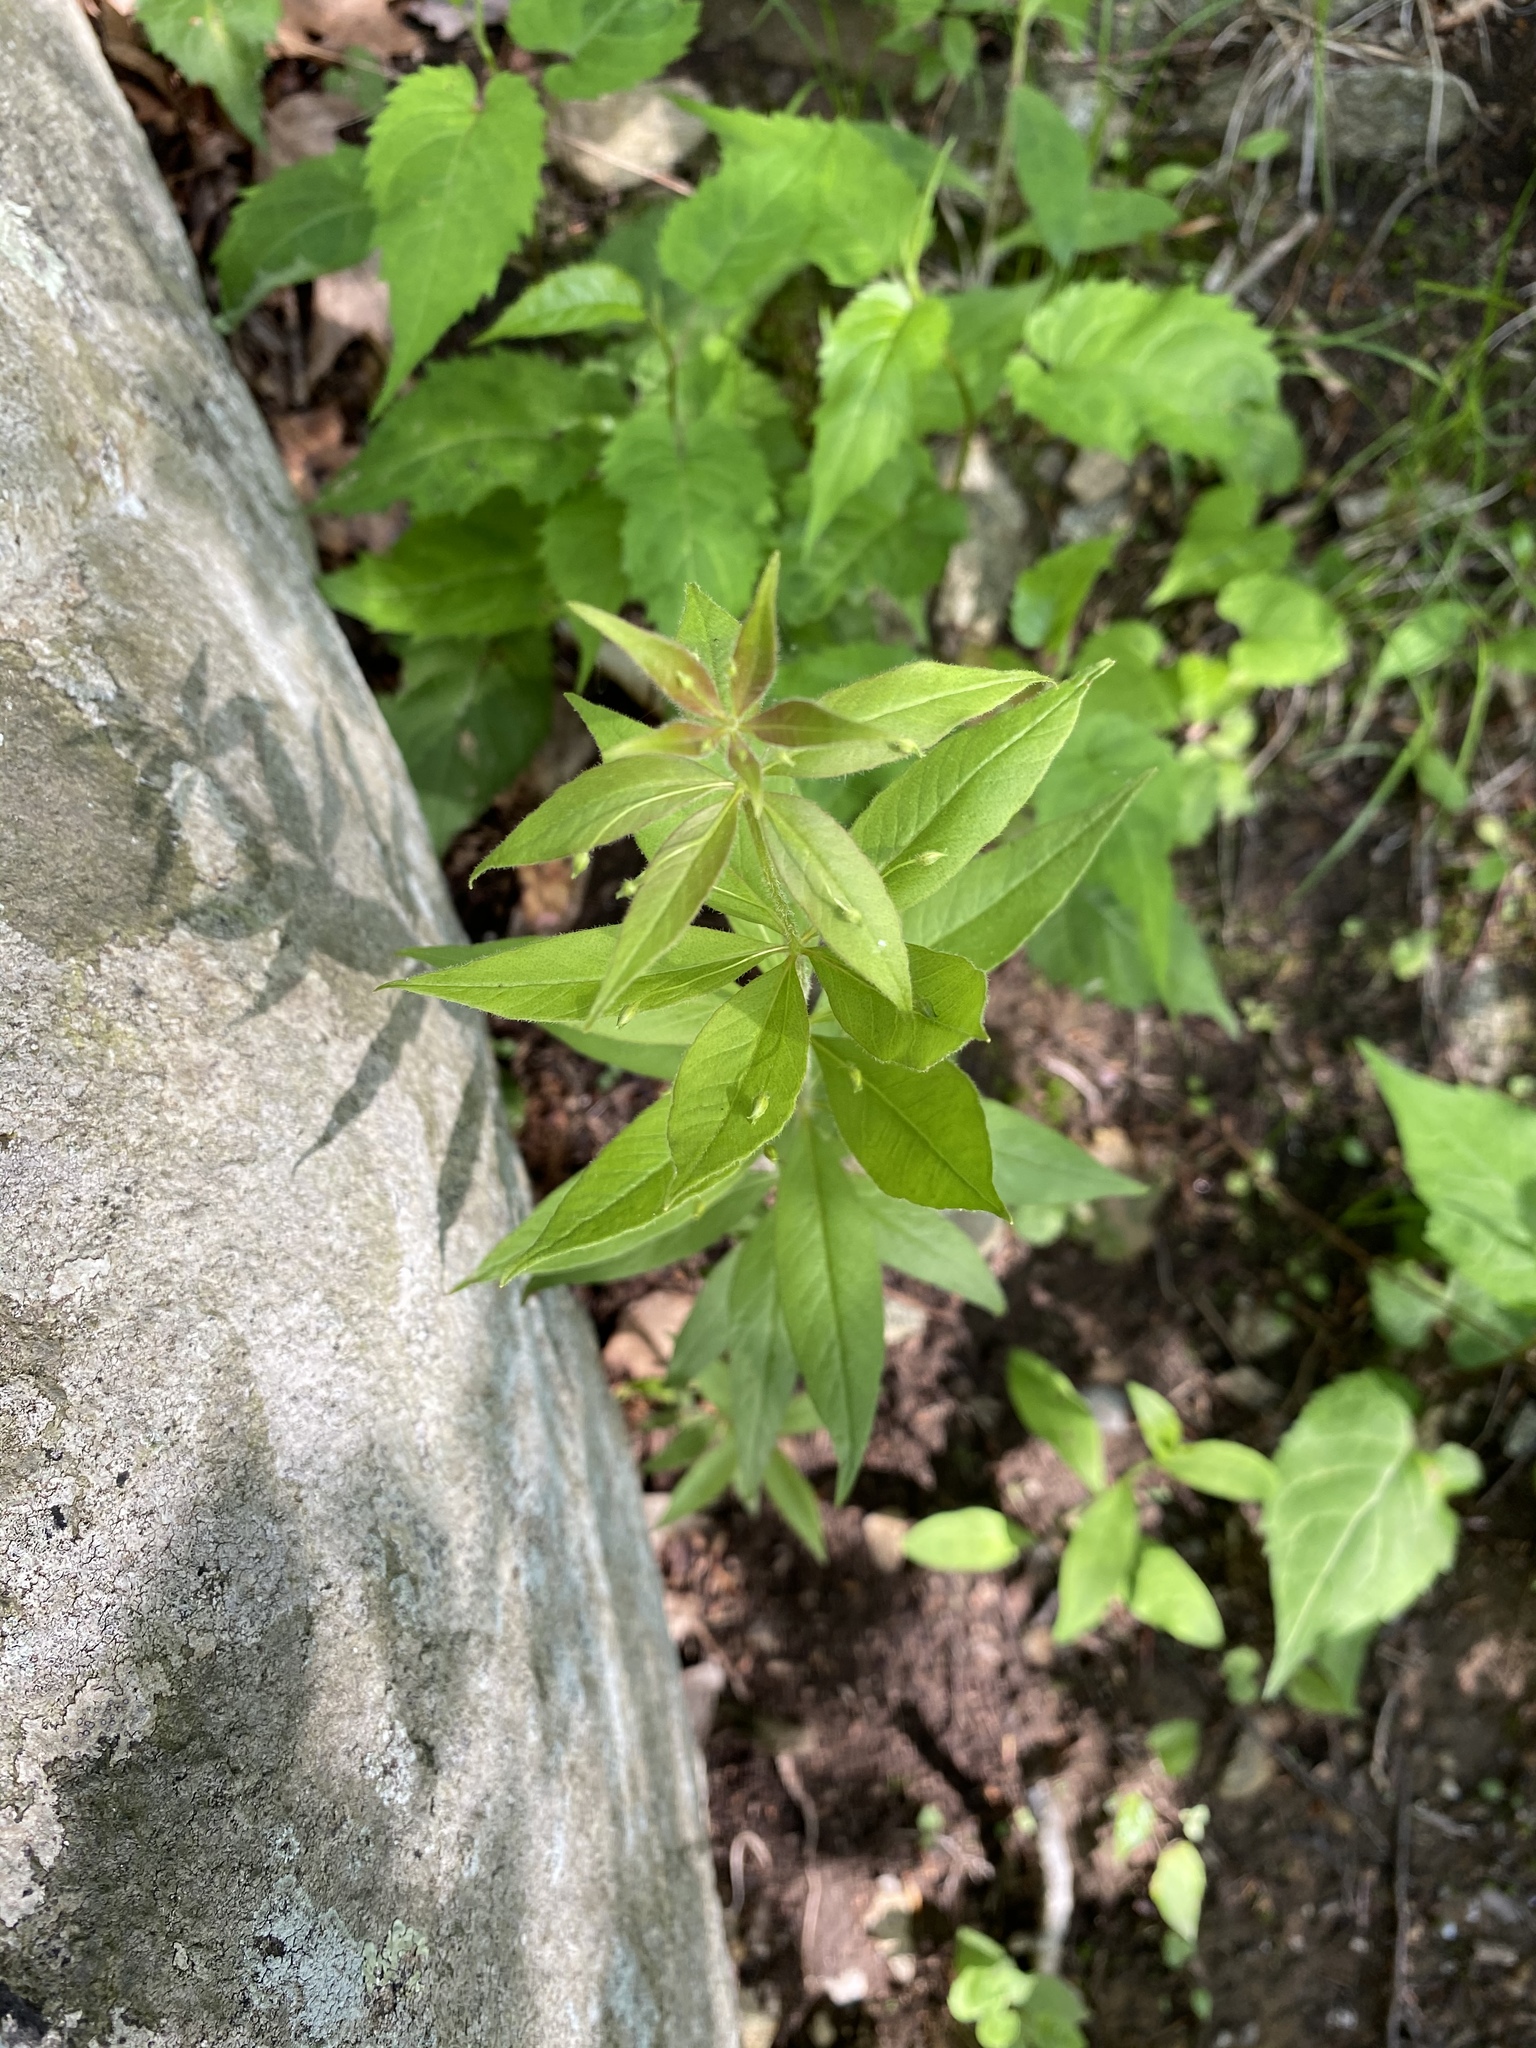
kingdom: Plantae
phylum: Tracheophyta
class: Magnoliopsida
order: Ericales
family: Primulaceae
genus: Lysimachia
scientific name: Lysimachia quadrifolia
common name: Whorled loosestrife
